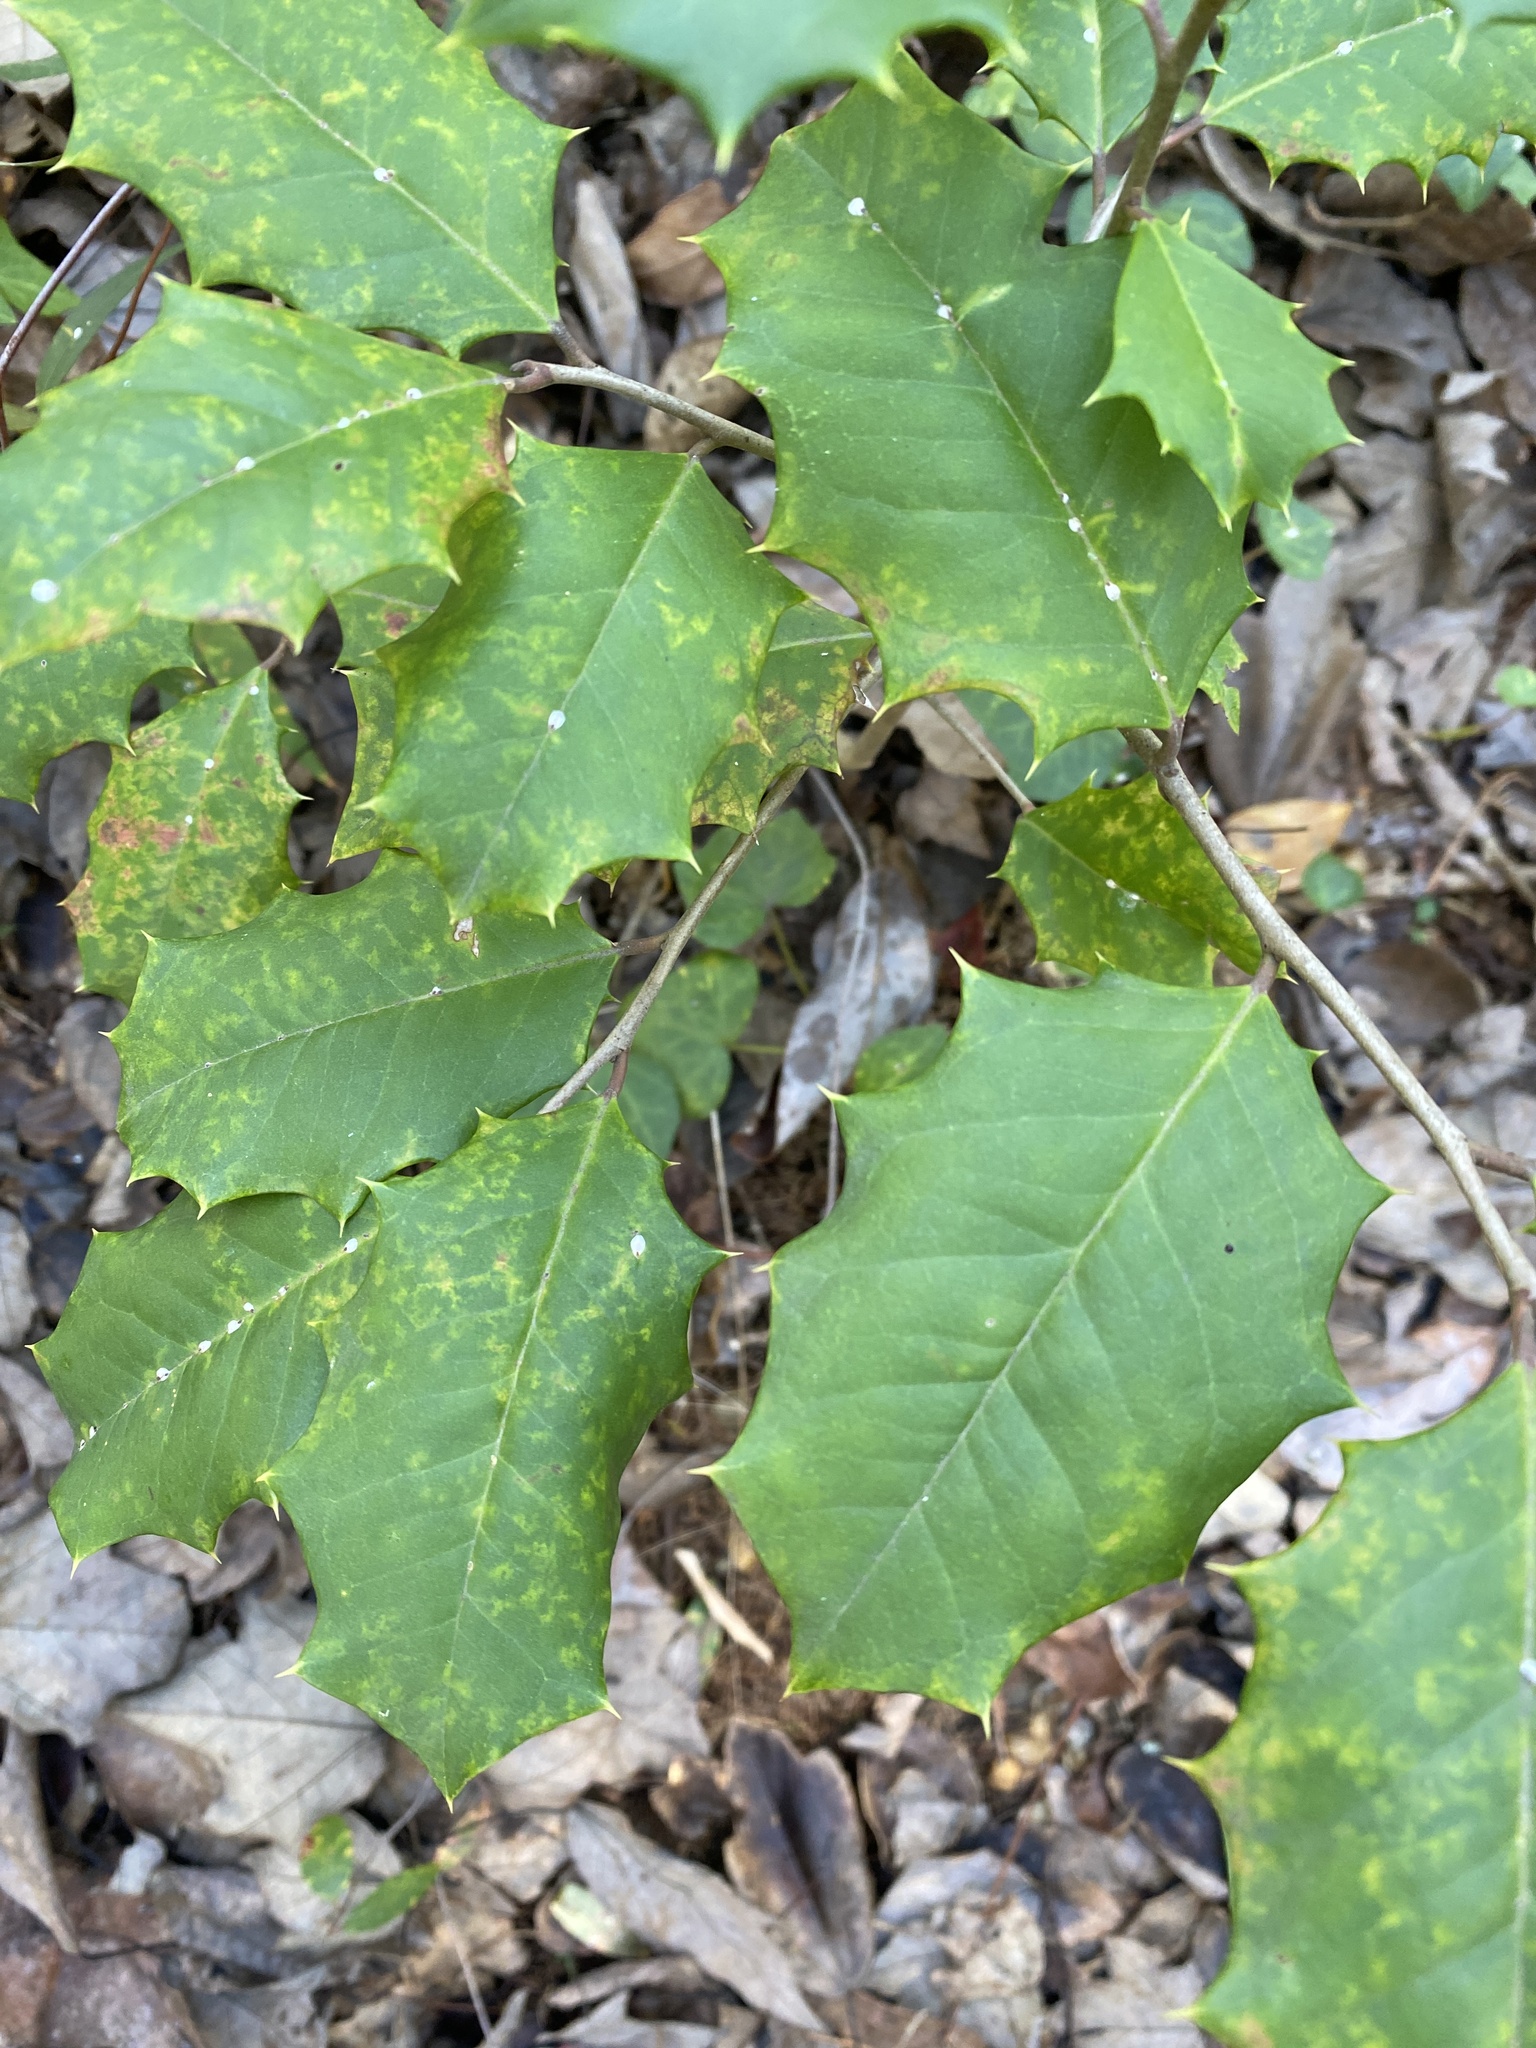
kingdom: Plantae
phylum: Tracheophyta
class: Magnoliopsida
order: Aquifoliales
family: Aquifoliaceae
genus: Ilex
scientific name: Ilex opaca
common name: American holly
